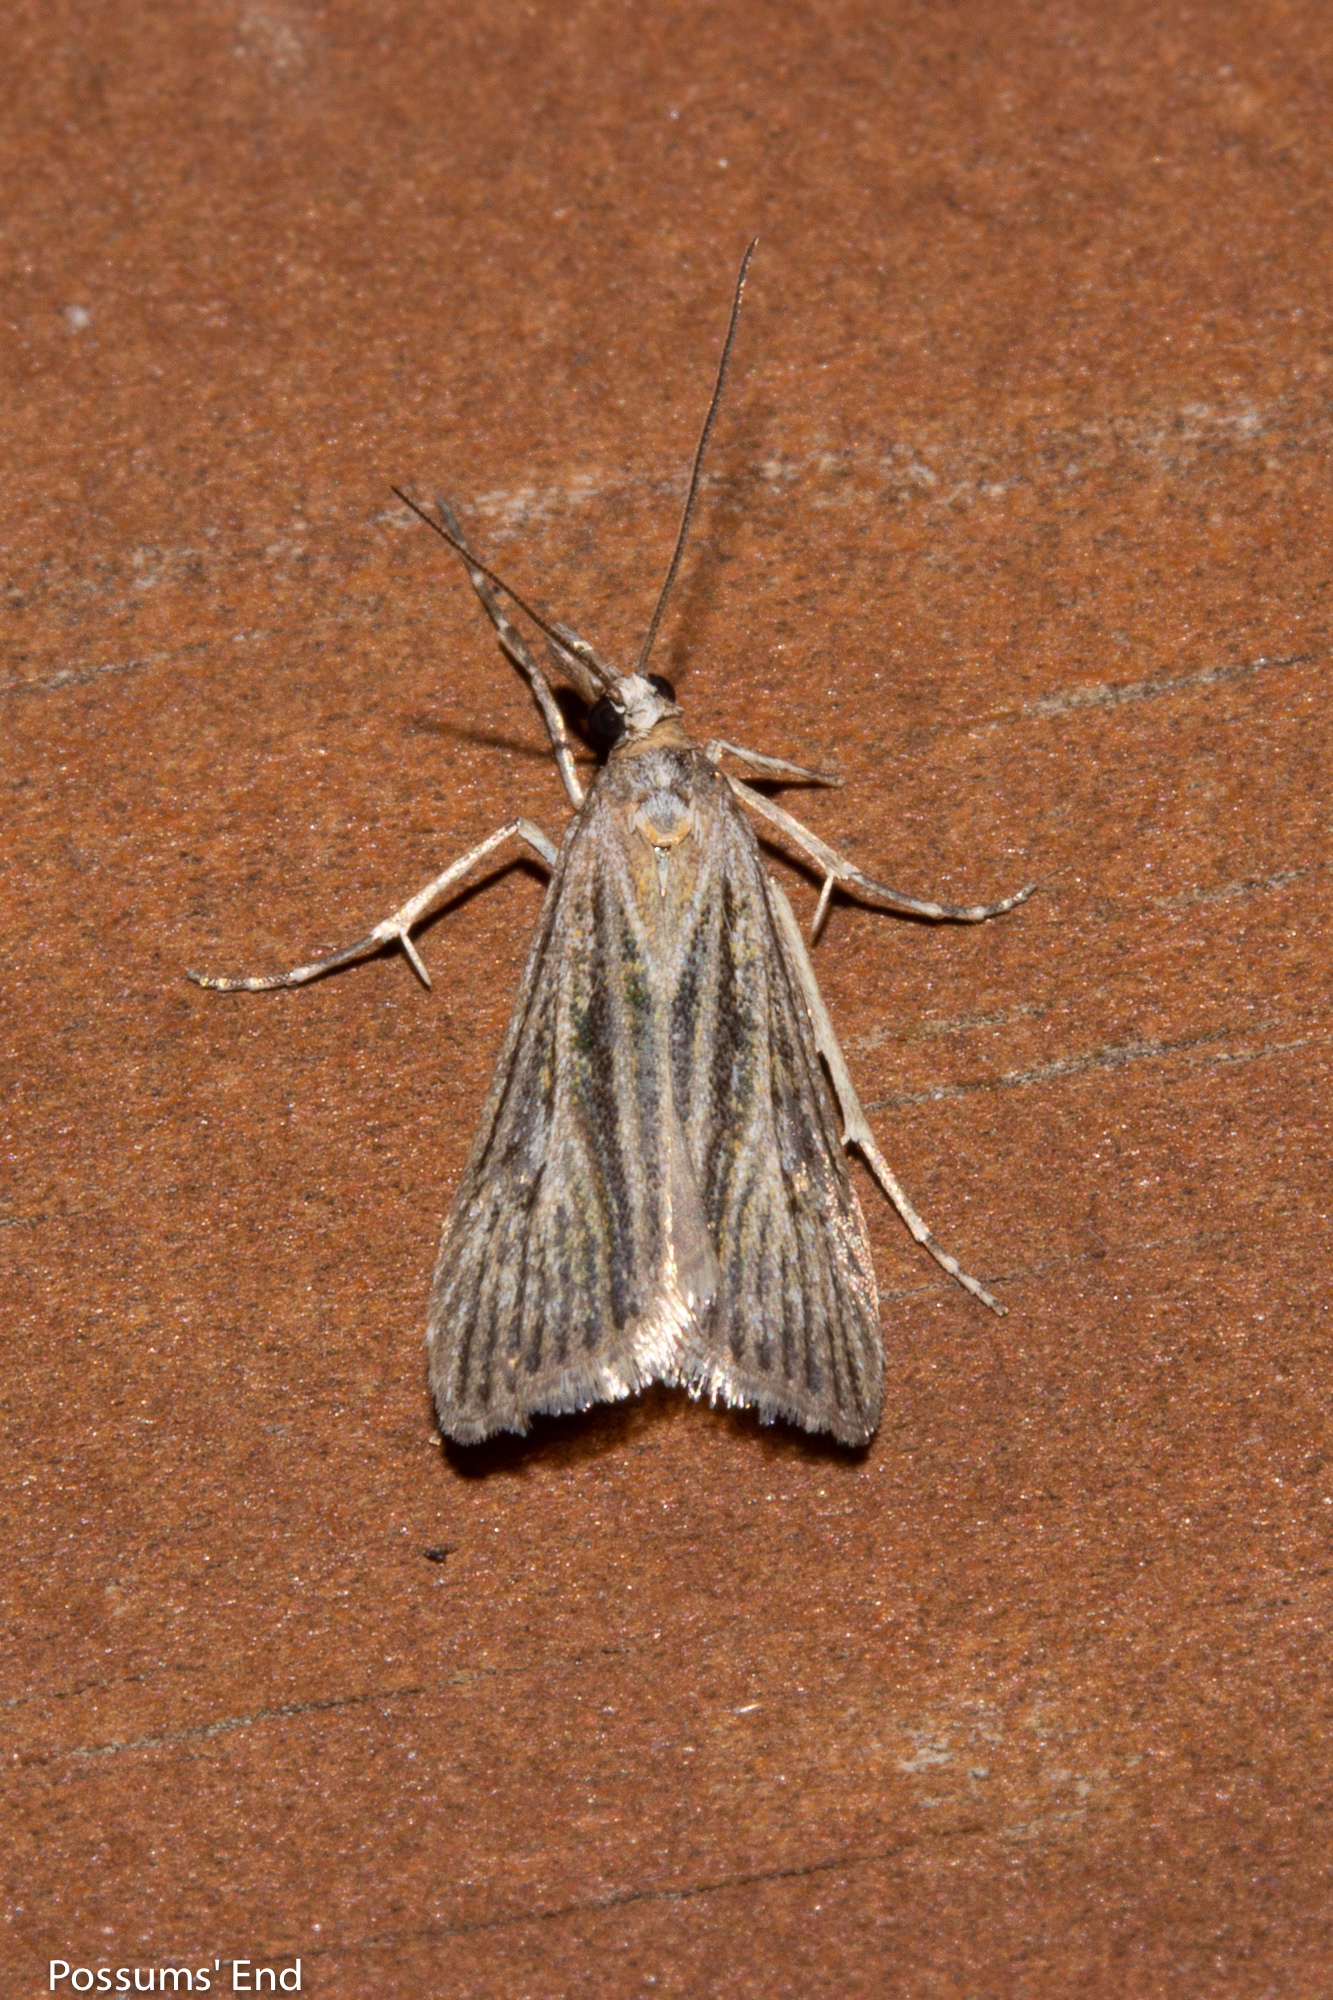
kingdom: Animalia
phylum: Arthropoda
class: Insecta
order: Lepidoptera
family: Crambidae
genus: Eudonia
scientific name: Eudonia atmogramma
